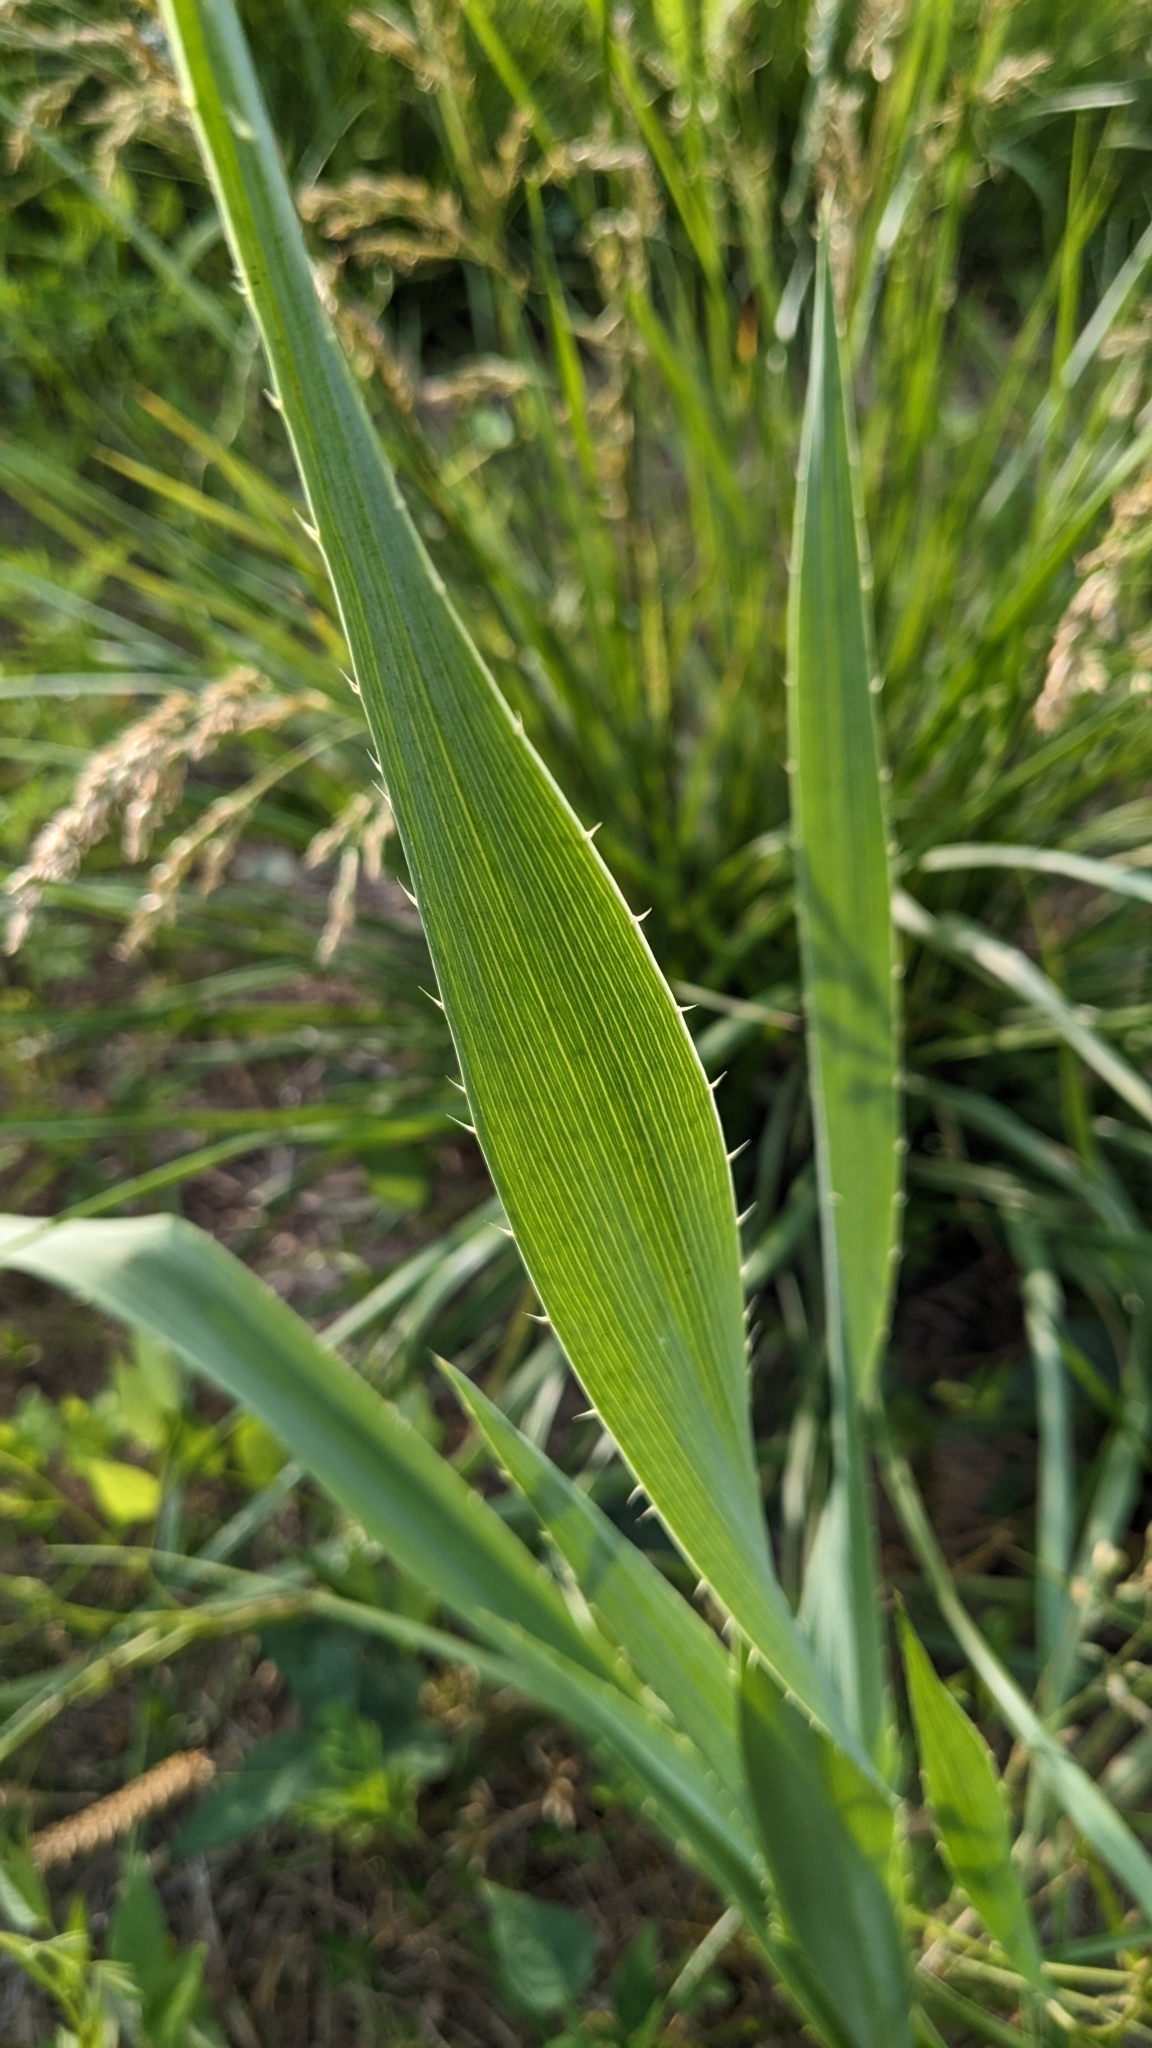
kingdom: Plantae
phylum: Tracheophyta
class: Magnoliopsida
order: Apiales
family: Apiaceae
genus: Eryngium
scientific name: Eryngium yuccifolium
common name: Button eryngo
